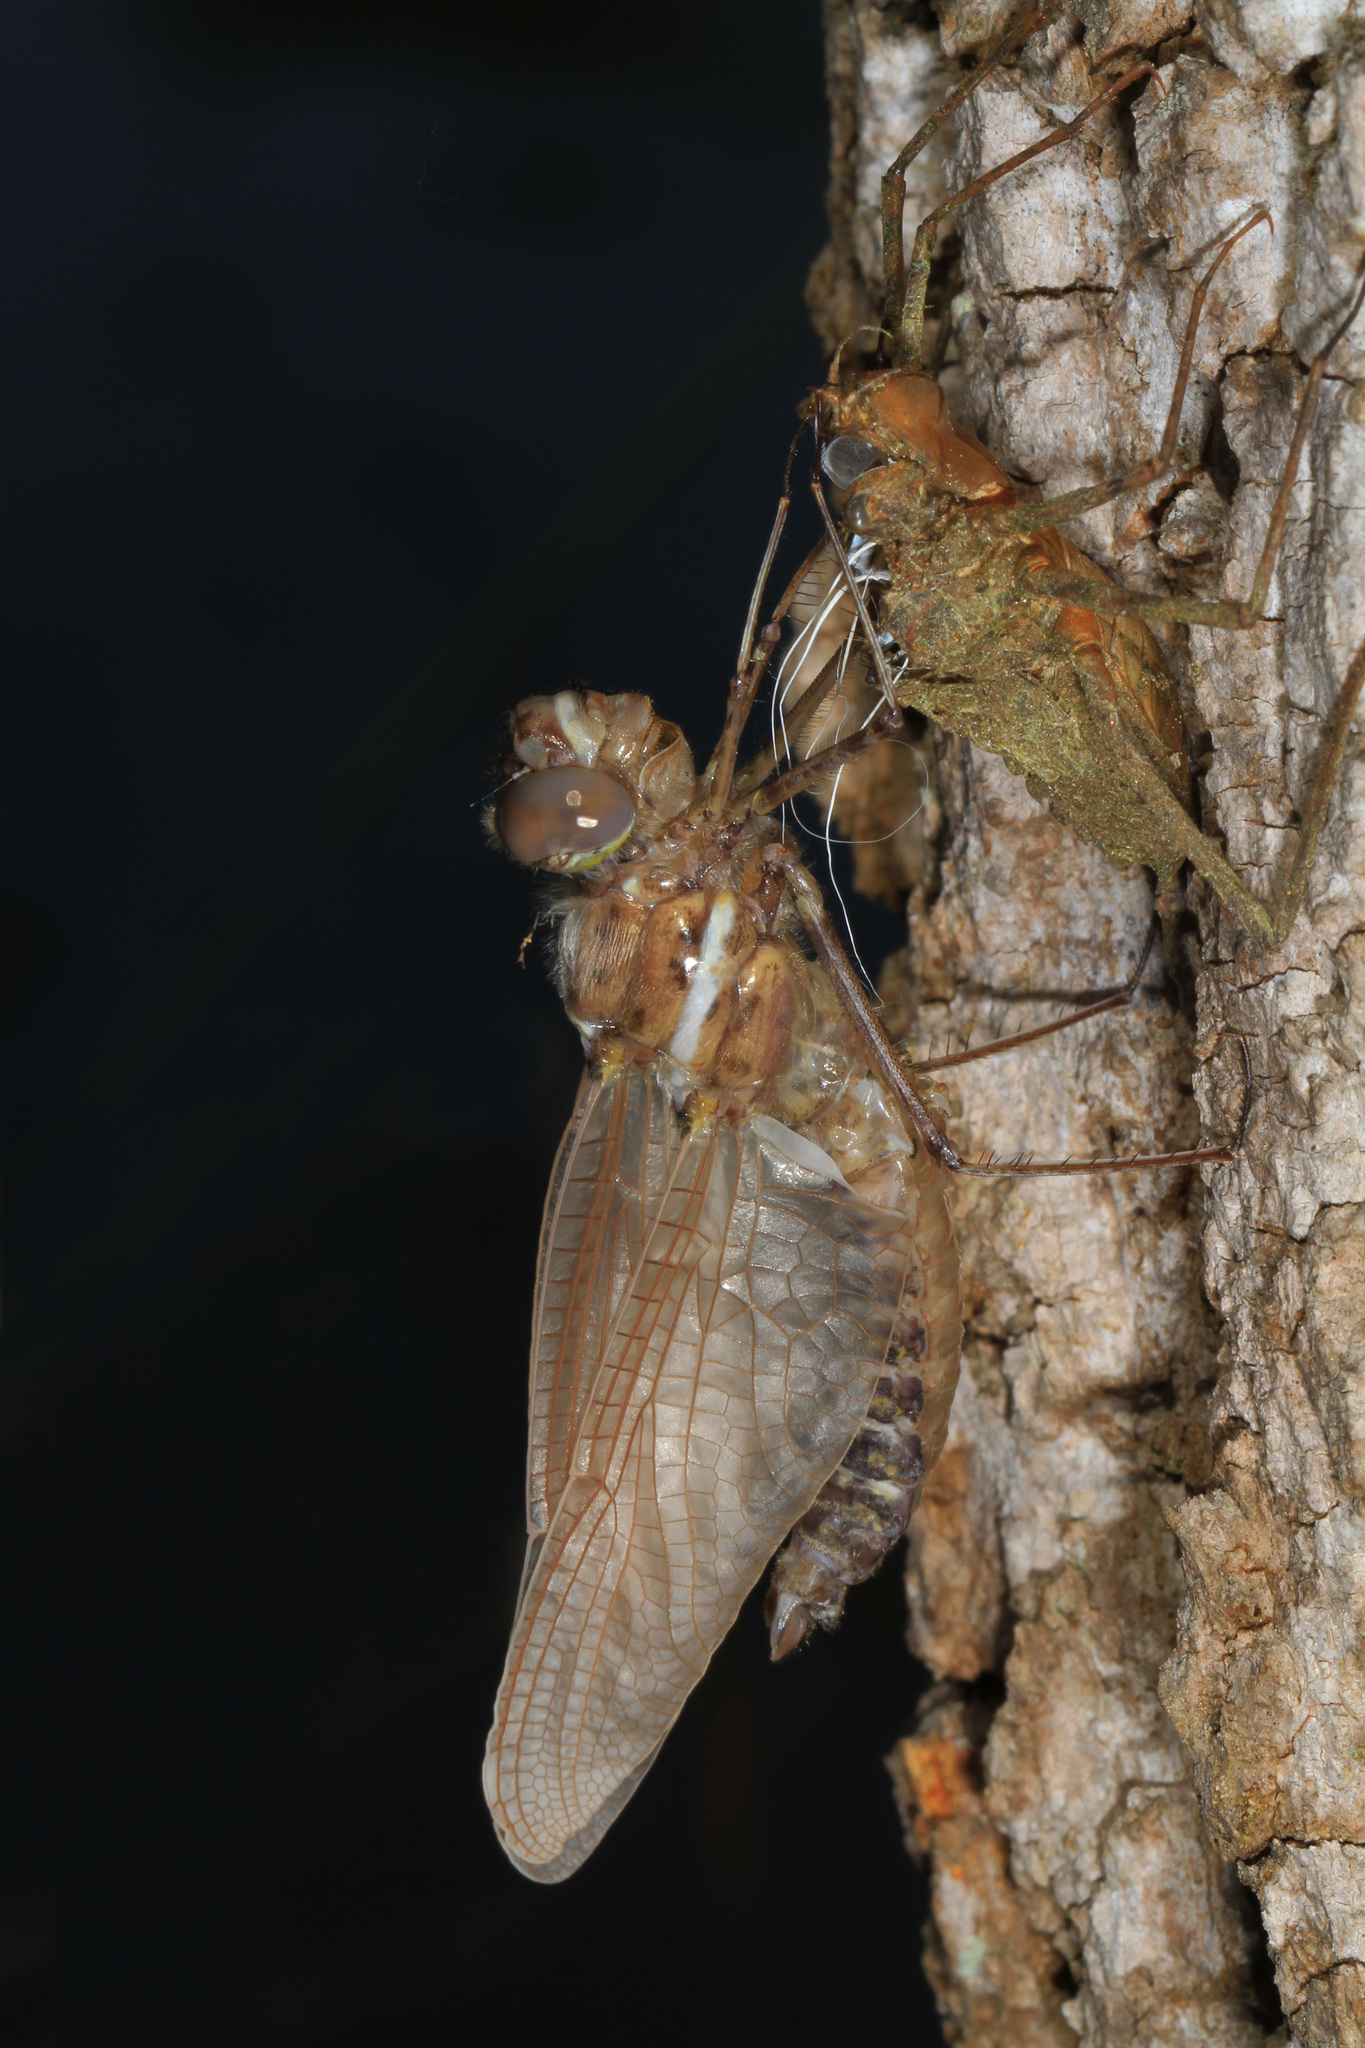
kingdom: Animalia
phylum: Arthropoda
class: Insecta
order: Odonata
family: Macromiidae
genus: Didymops
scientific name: Didymops transversa
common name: Stream cruiser
